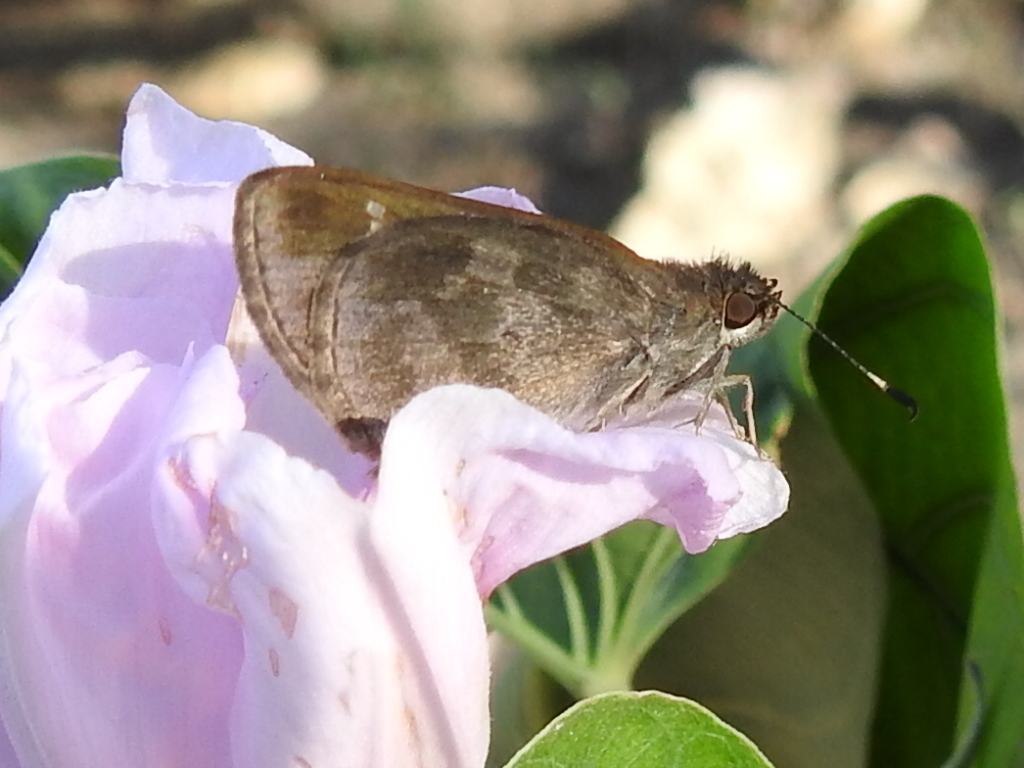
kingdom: Animalia
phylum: Arthropoda
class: Insecta
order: Lepidoptera
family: Hesperiidae
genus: Cymaenes
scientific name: Cymaenes
